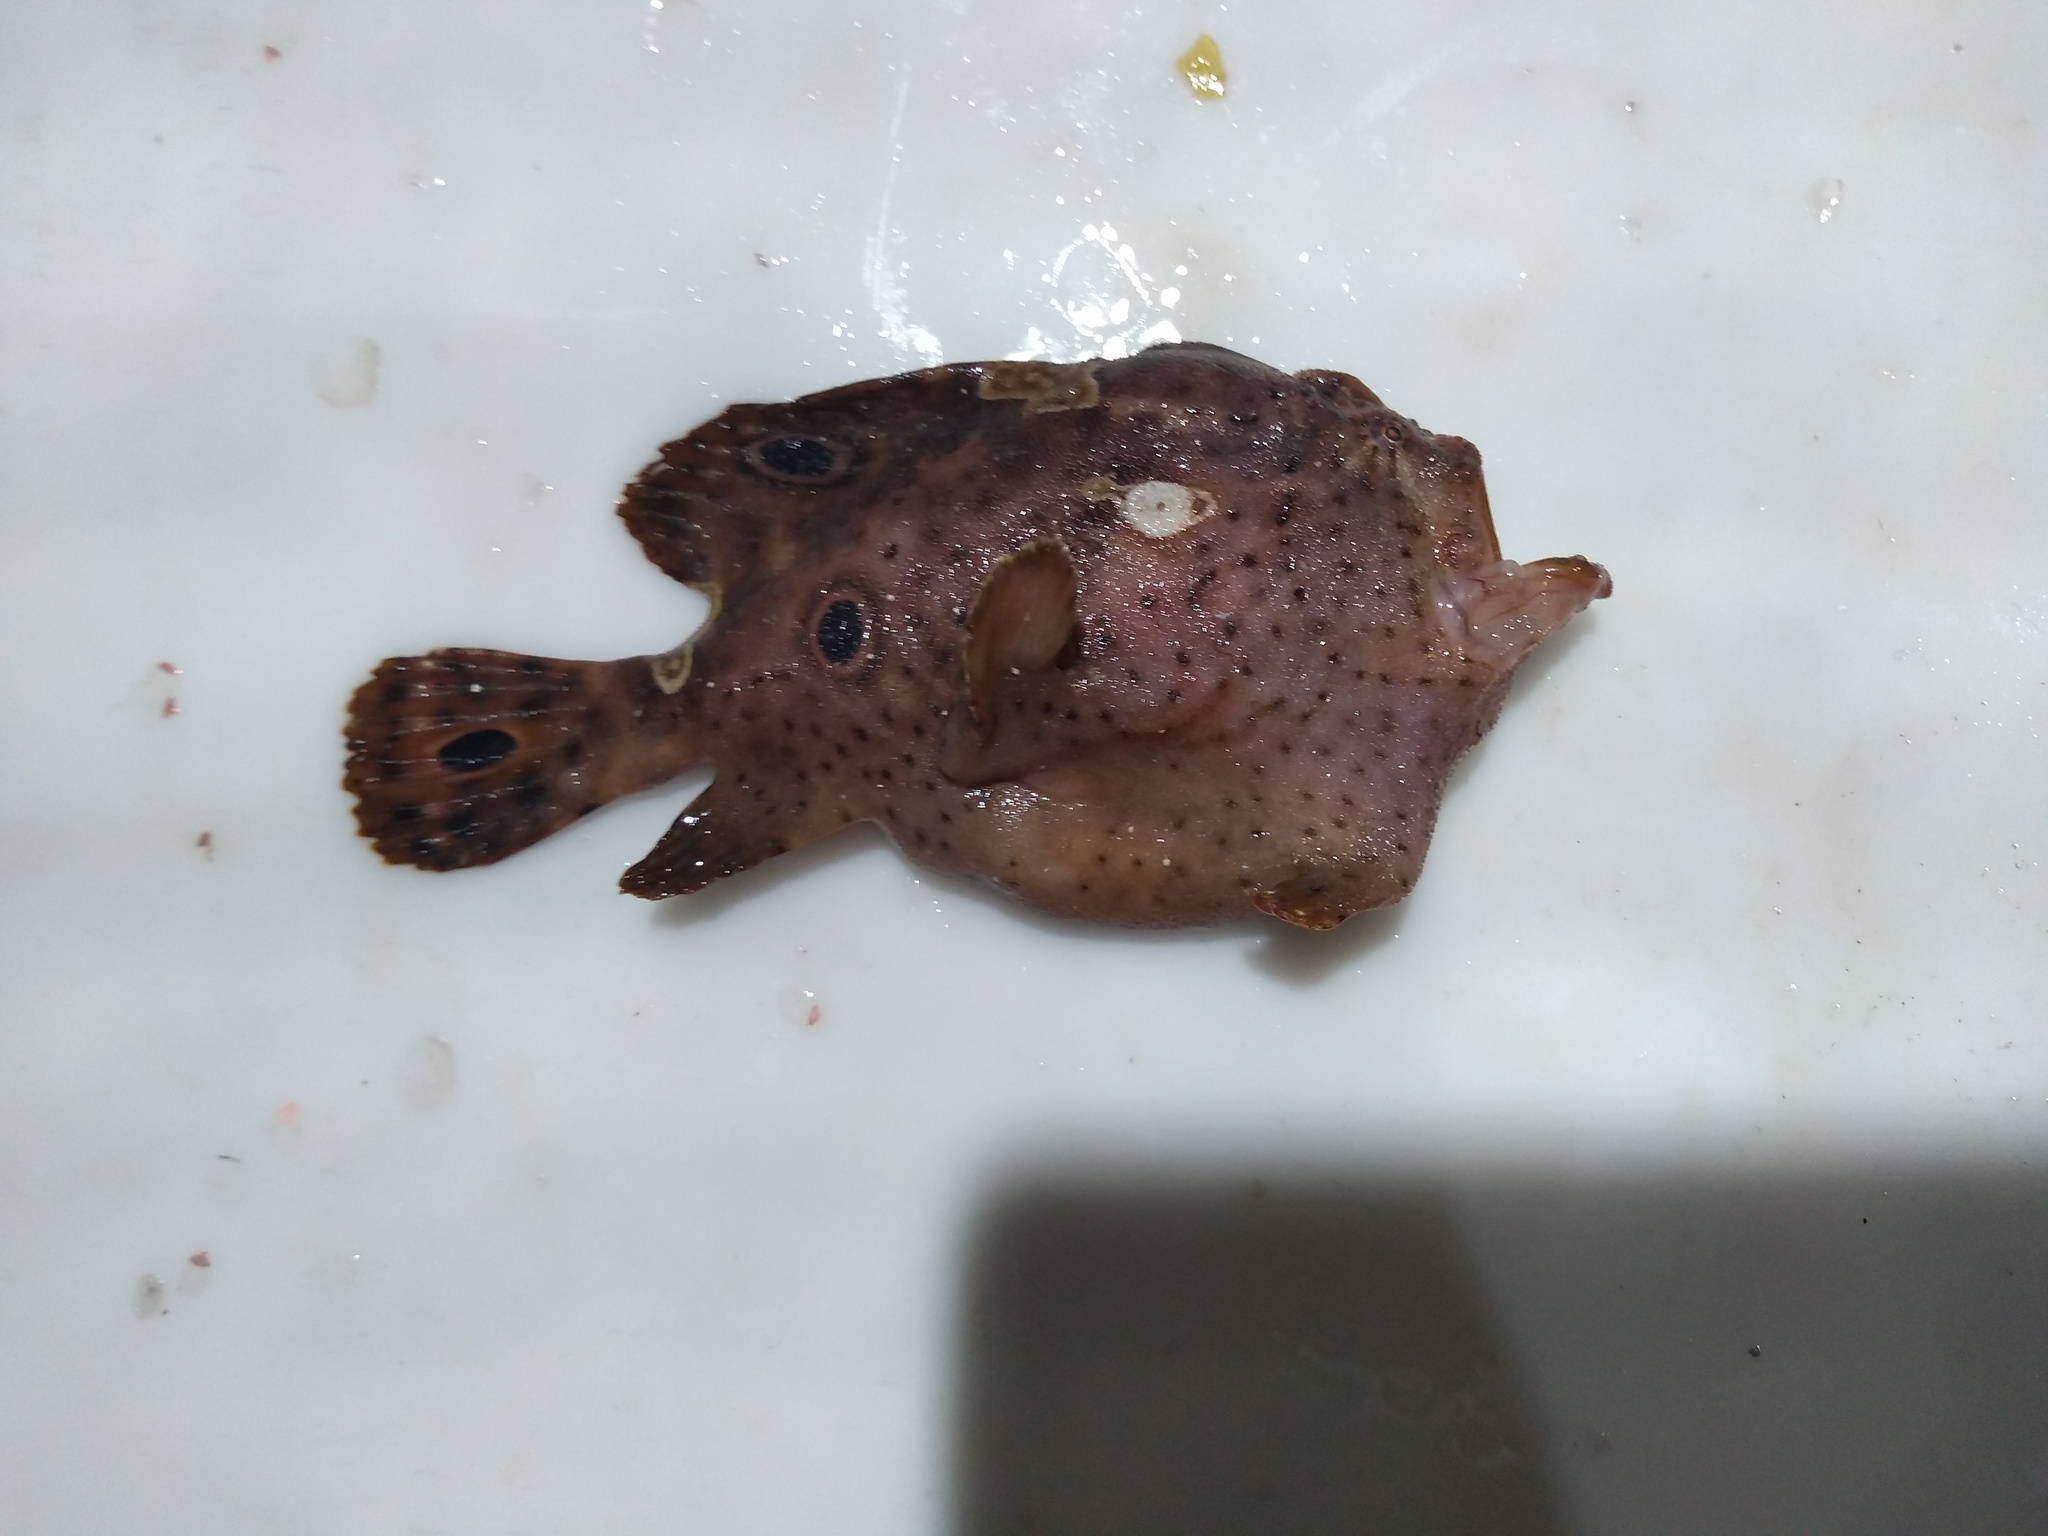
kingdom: Animalia
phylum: Chordata
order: Lophiiformes
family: Antennariidae
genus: Fowlerichthys
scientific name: Fowlerichthys ocellatus
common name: Ocellated frogfish
